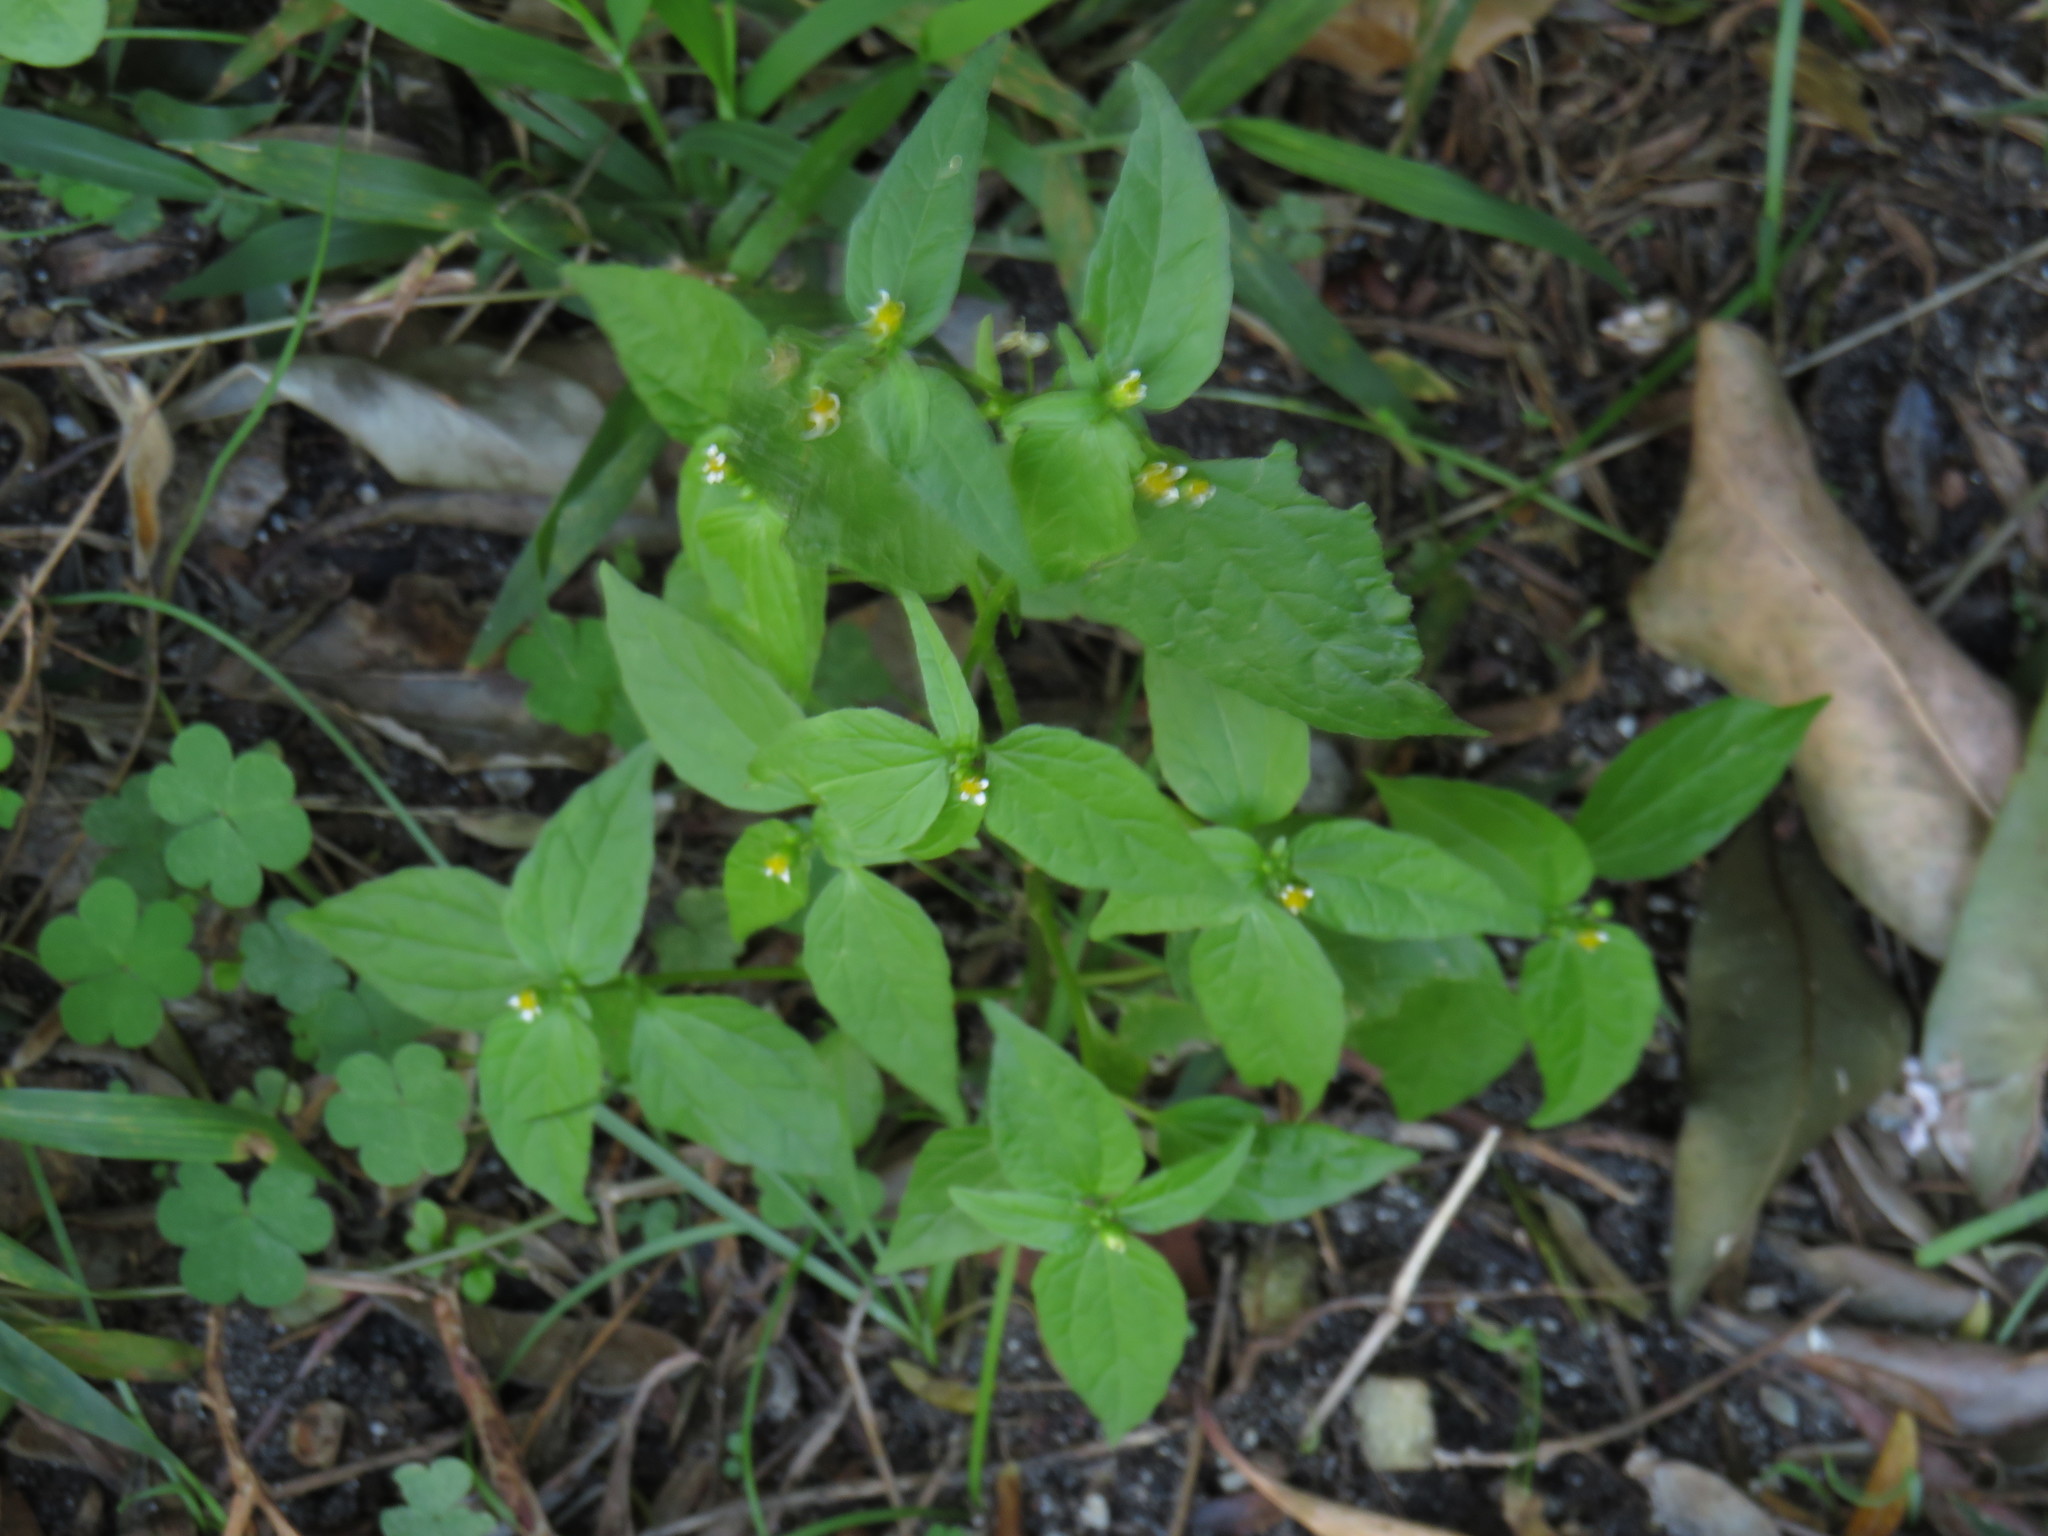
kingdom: Plantae
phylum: Tracheophyta
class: Magnoliopsida
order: Asterales
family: Asteraceae
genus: Galinsoga
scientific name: Galinsoga parviflora
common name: Gallant soldier
